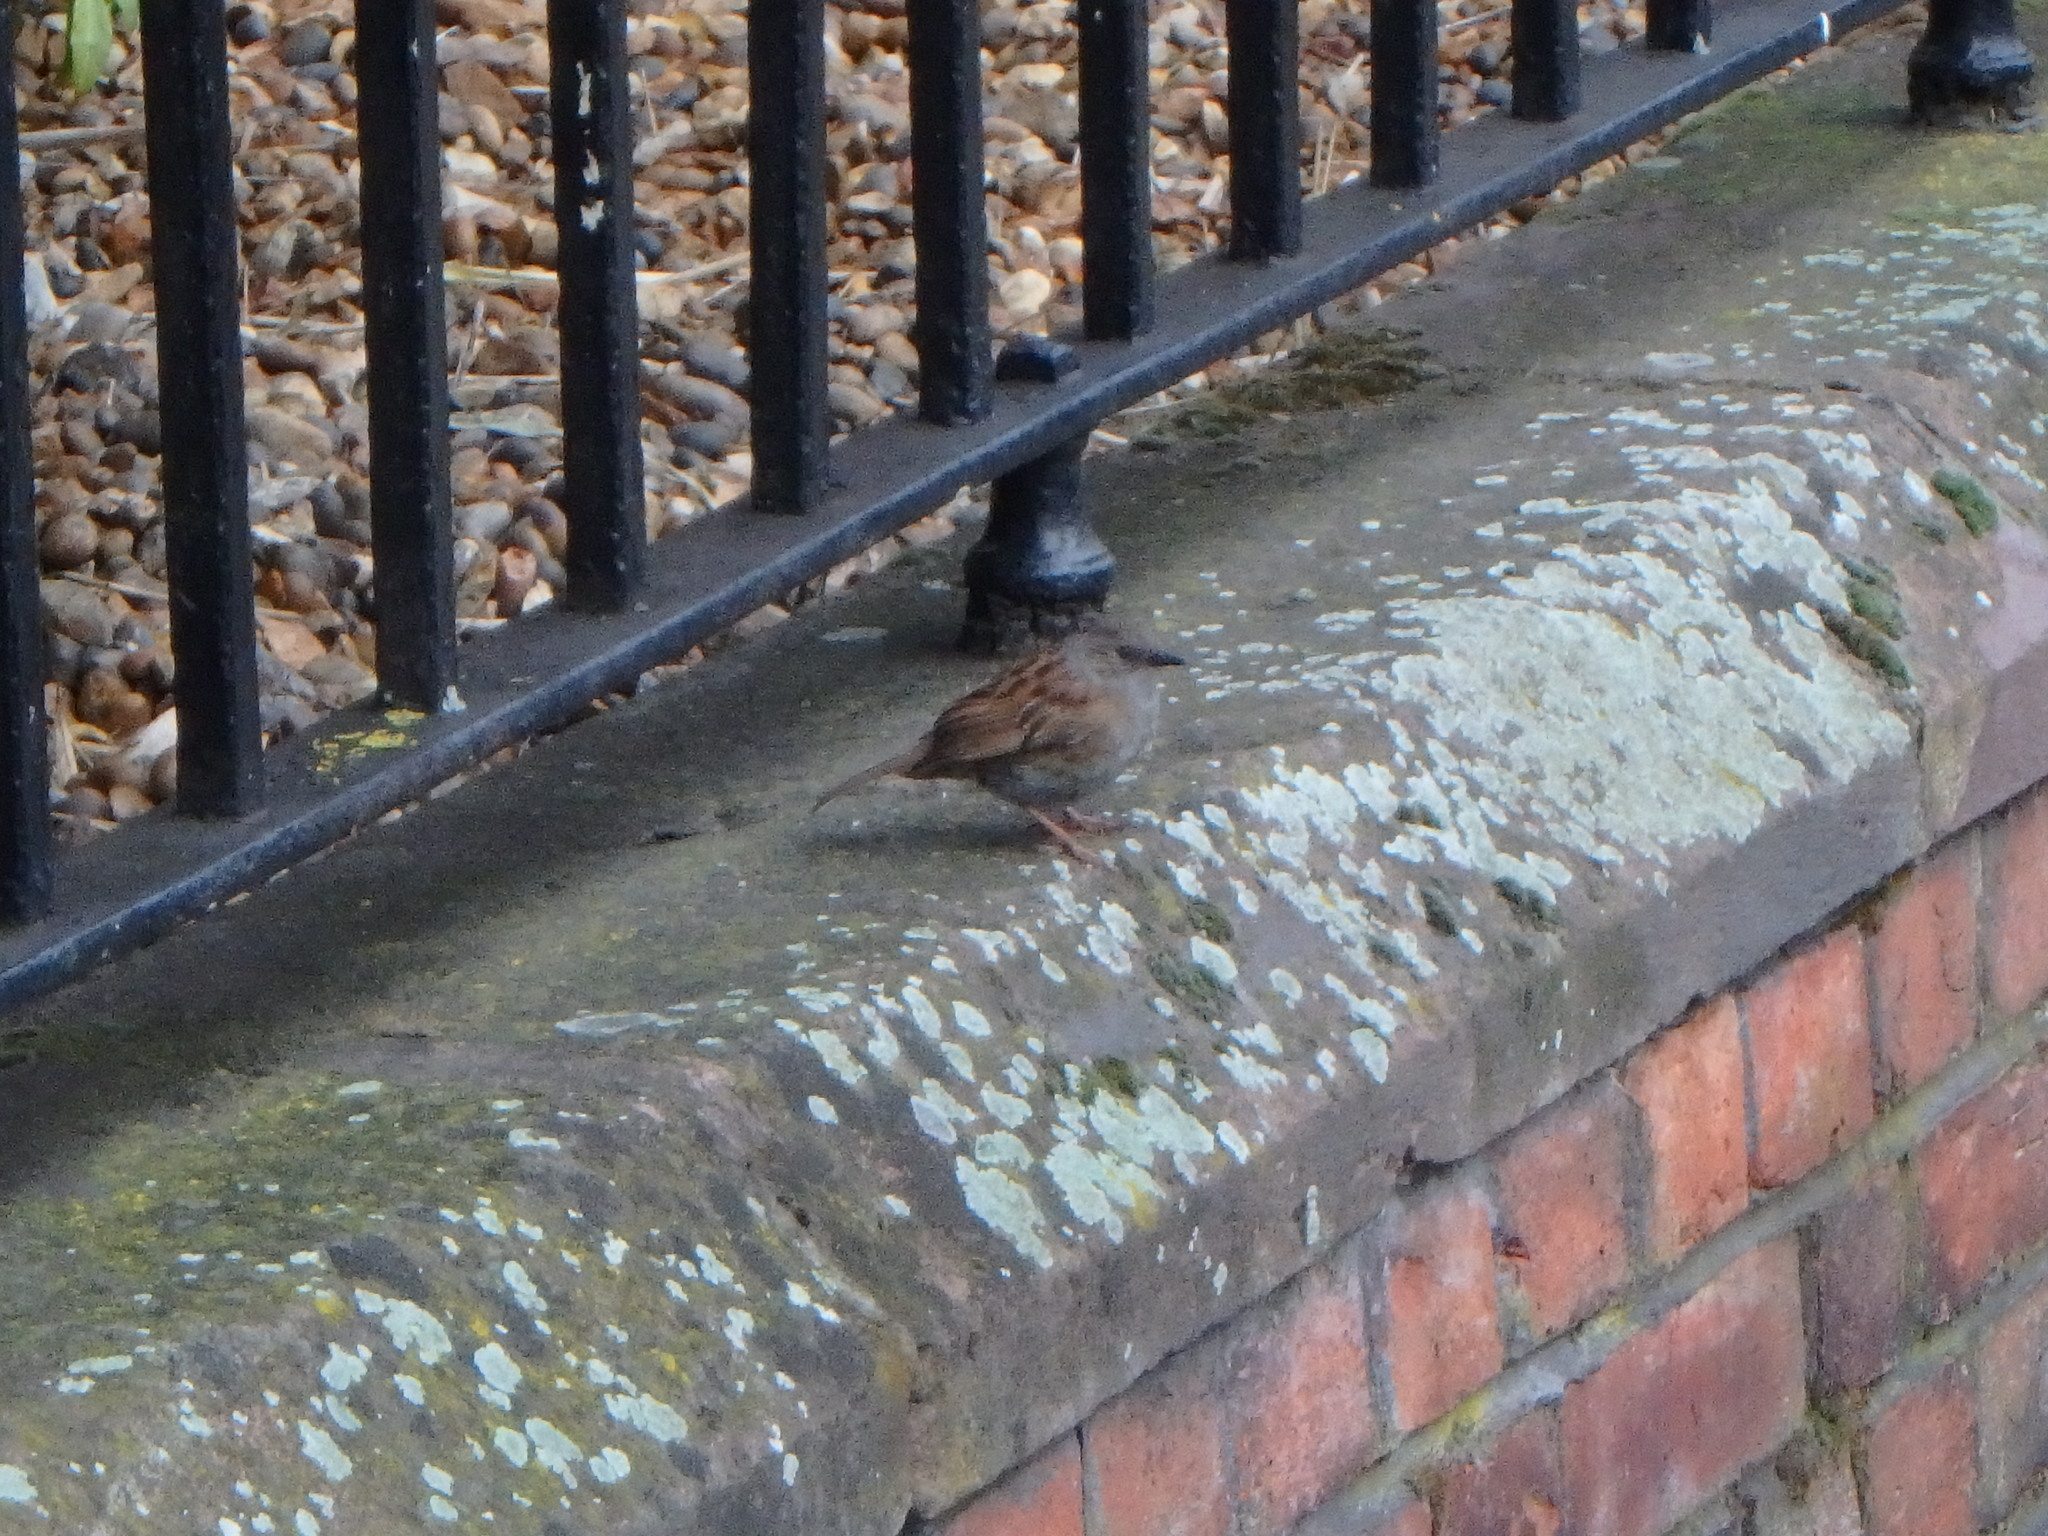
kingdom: Animalia
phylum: Chordata
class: Aves
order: Passeriformes
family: Prunellidae
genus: Prunella
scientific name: Prunella modularis
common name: Dunnock
